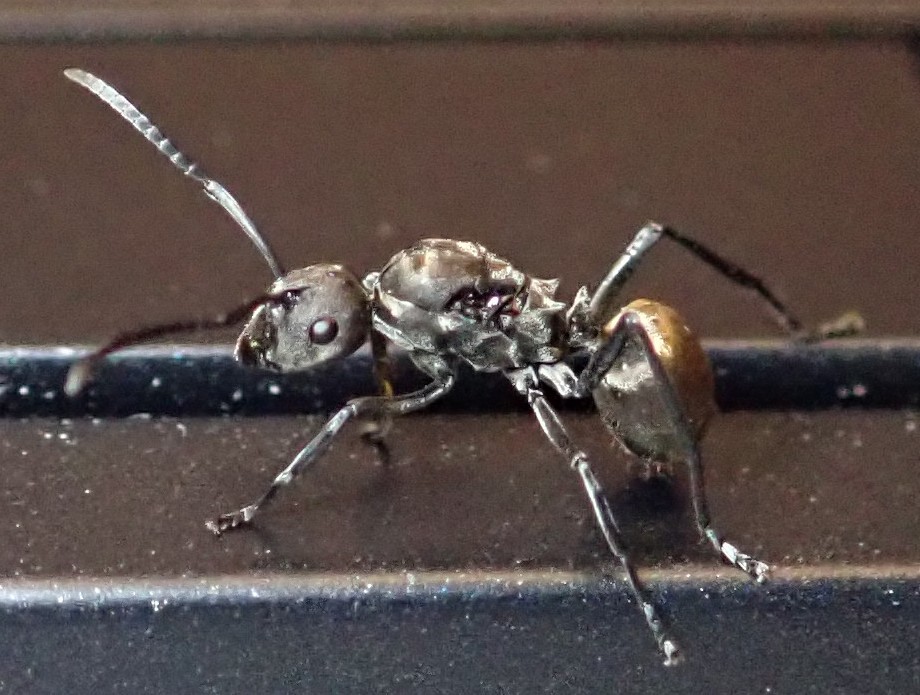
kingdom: Animalia
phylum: Arthropoda
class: Insecta
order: Hymenoptera
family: Formicidae
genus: Polyrhachis
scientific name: Polyrhachis dives
